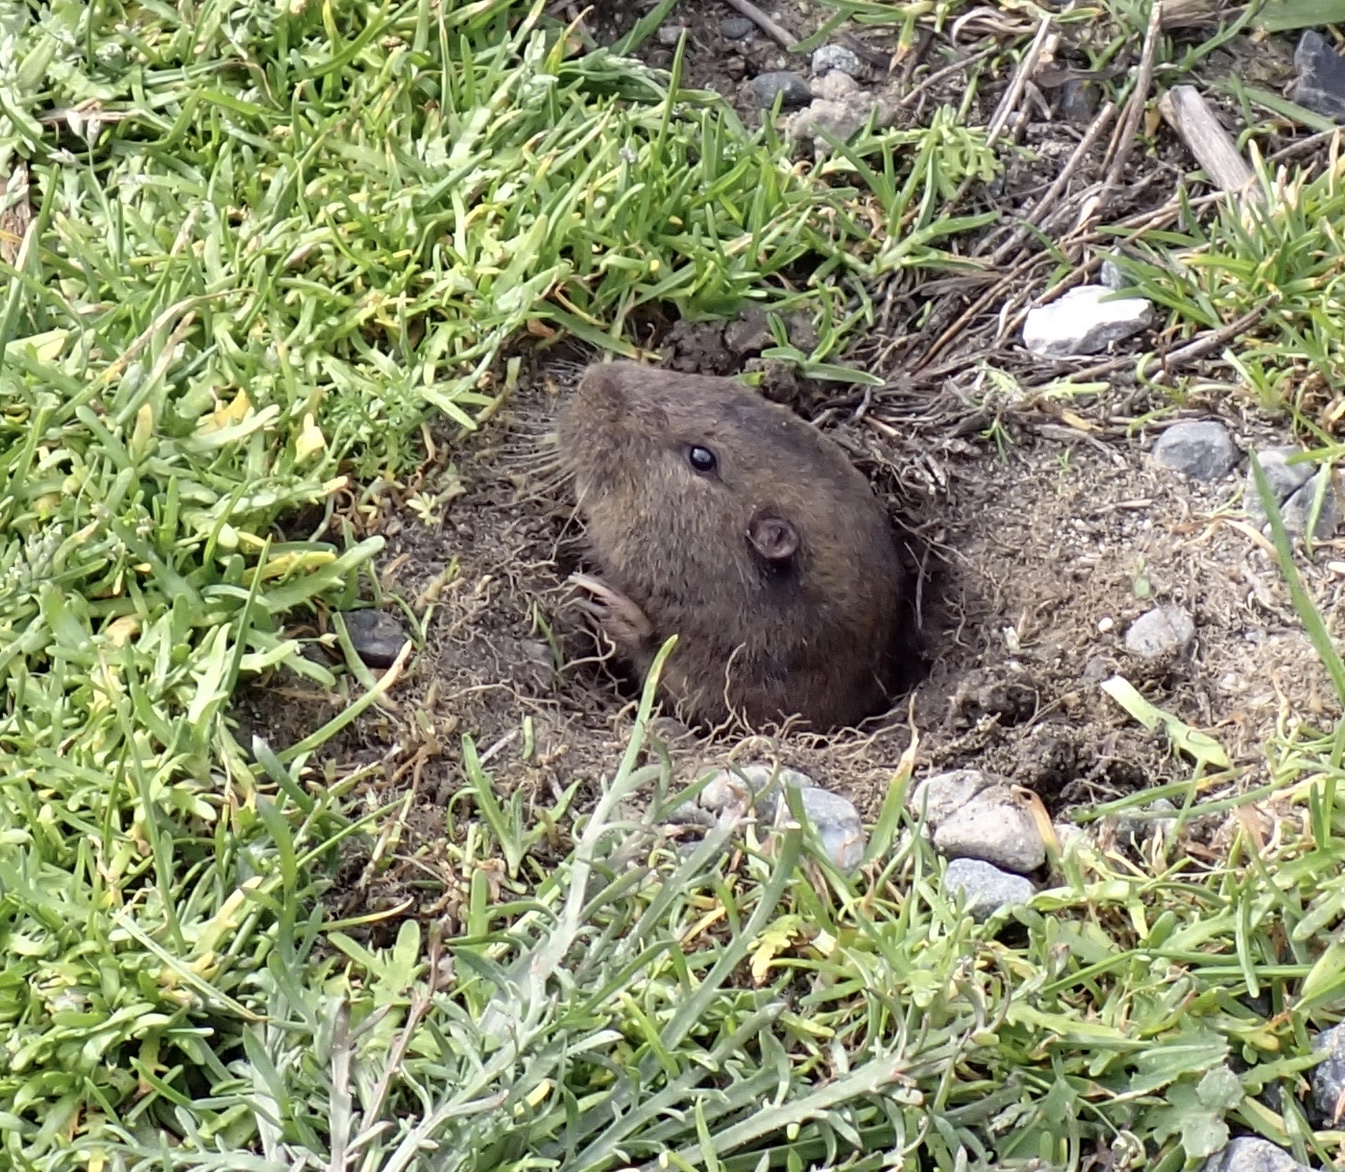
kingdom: Animalia
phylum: Chordata
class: Mammalia
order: Rodentia
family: Geomyidae
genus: Thomomys
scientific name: Thomomys bottae
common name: Botta's pocket gopher
